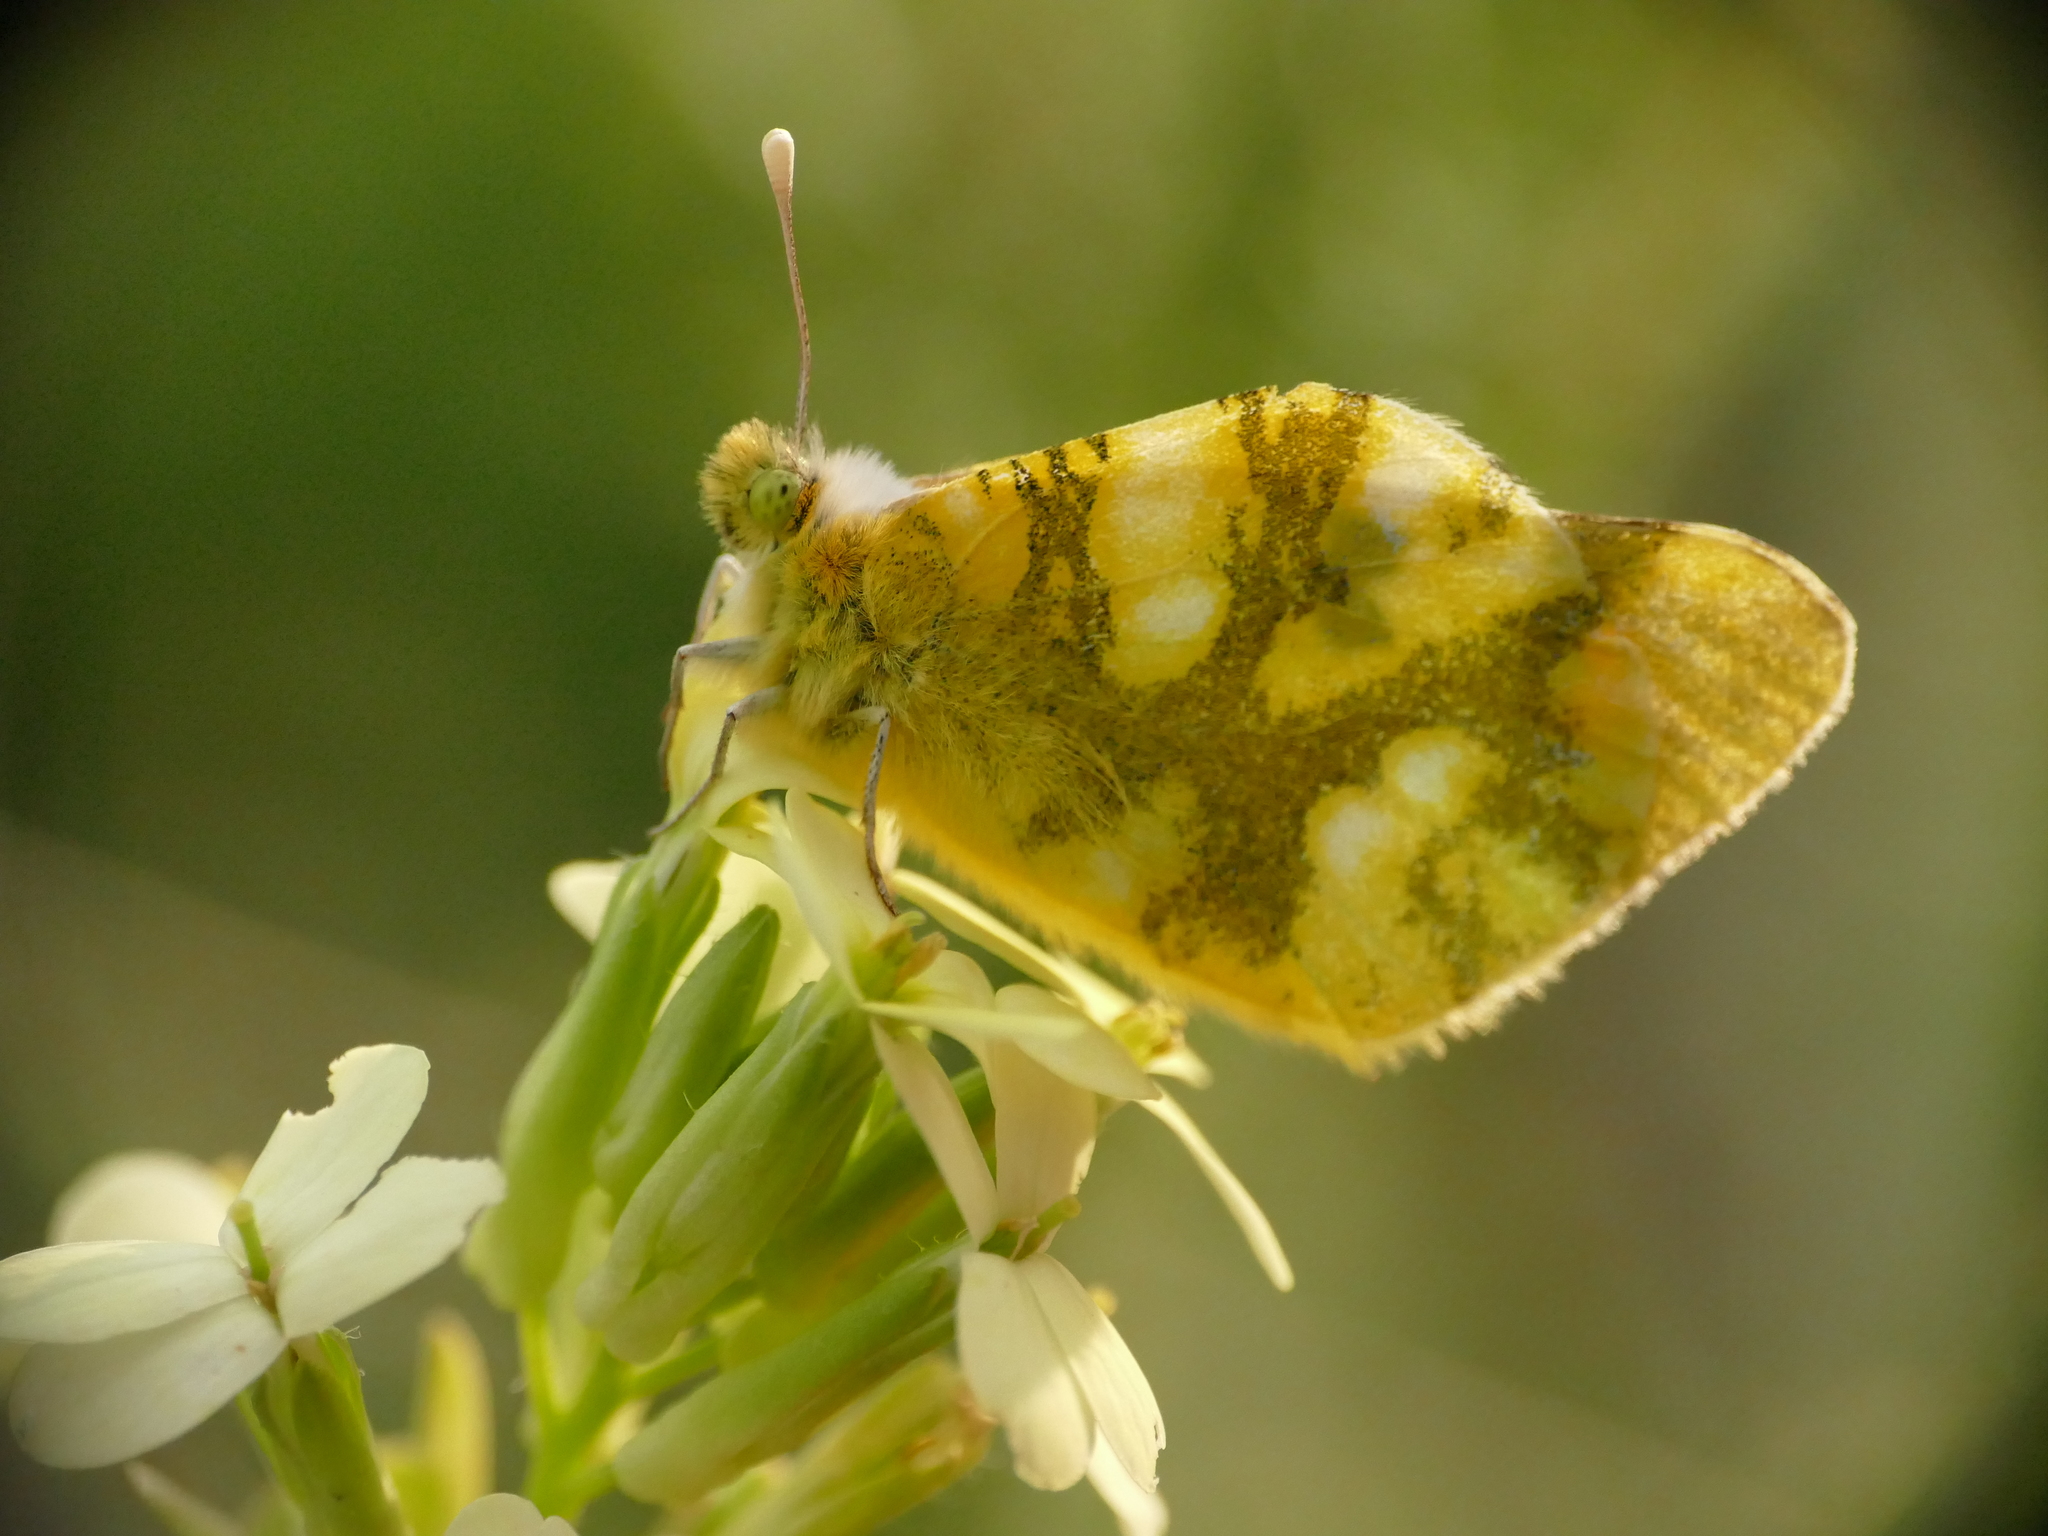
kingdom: Animalia
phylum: Arthropoda
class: Insecta
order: Lepidoptera
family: Pieridae
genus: Zegris
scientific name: Zegris eupheme
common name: Sooty orange tip
